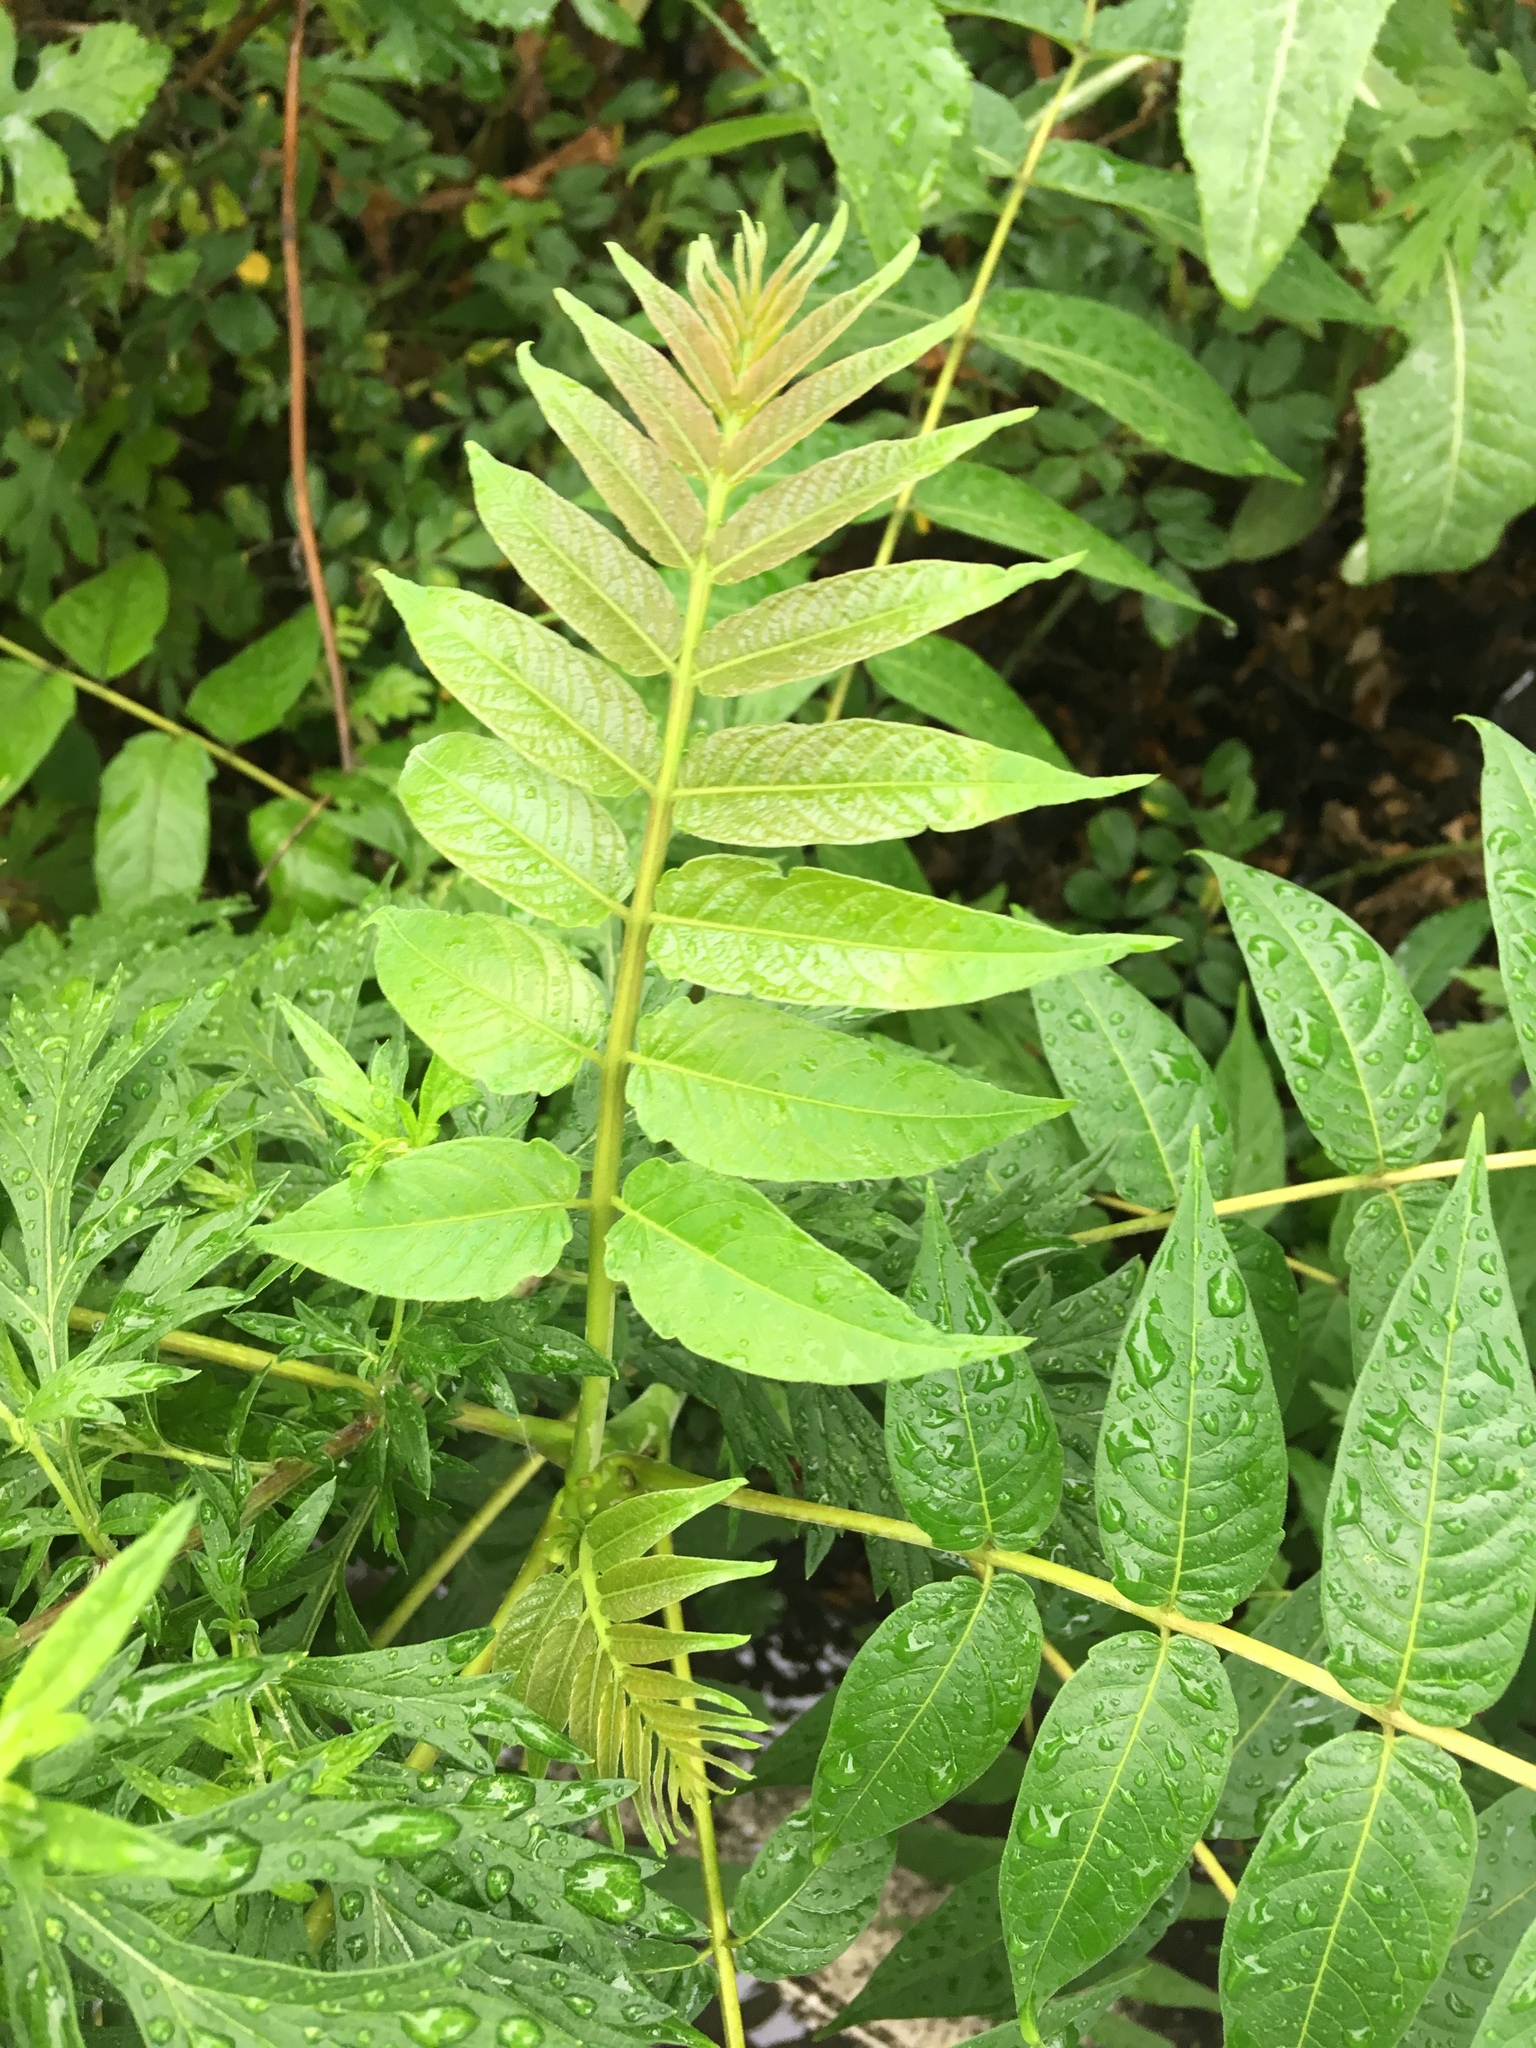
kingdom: Plantae
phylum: Tracheophyta
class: Magnoliopsida
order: Sapindales
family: Simaroubaceae
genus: Ailanthus
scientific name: Ailanthus altissima
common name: Tree-of-heaven
